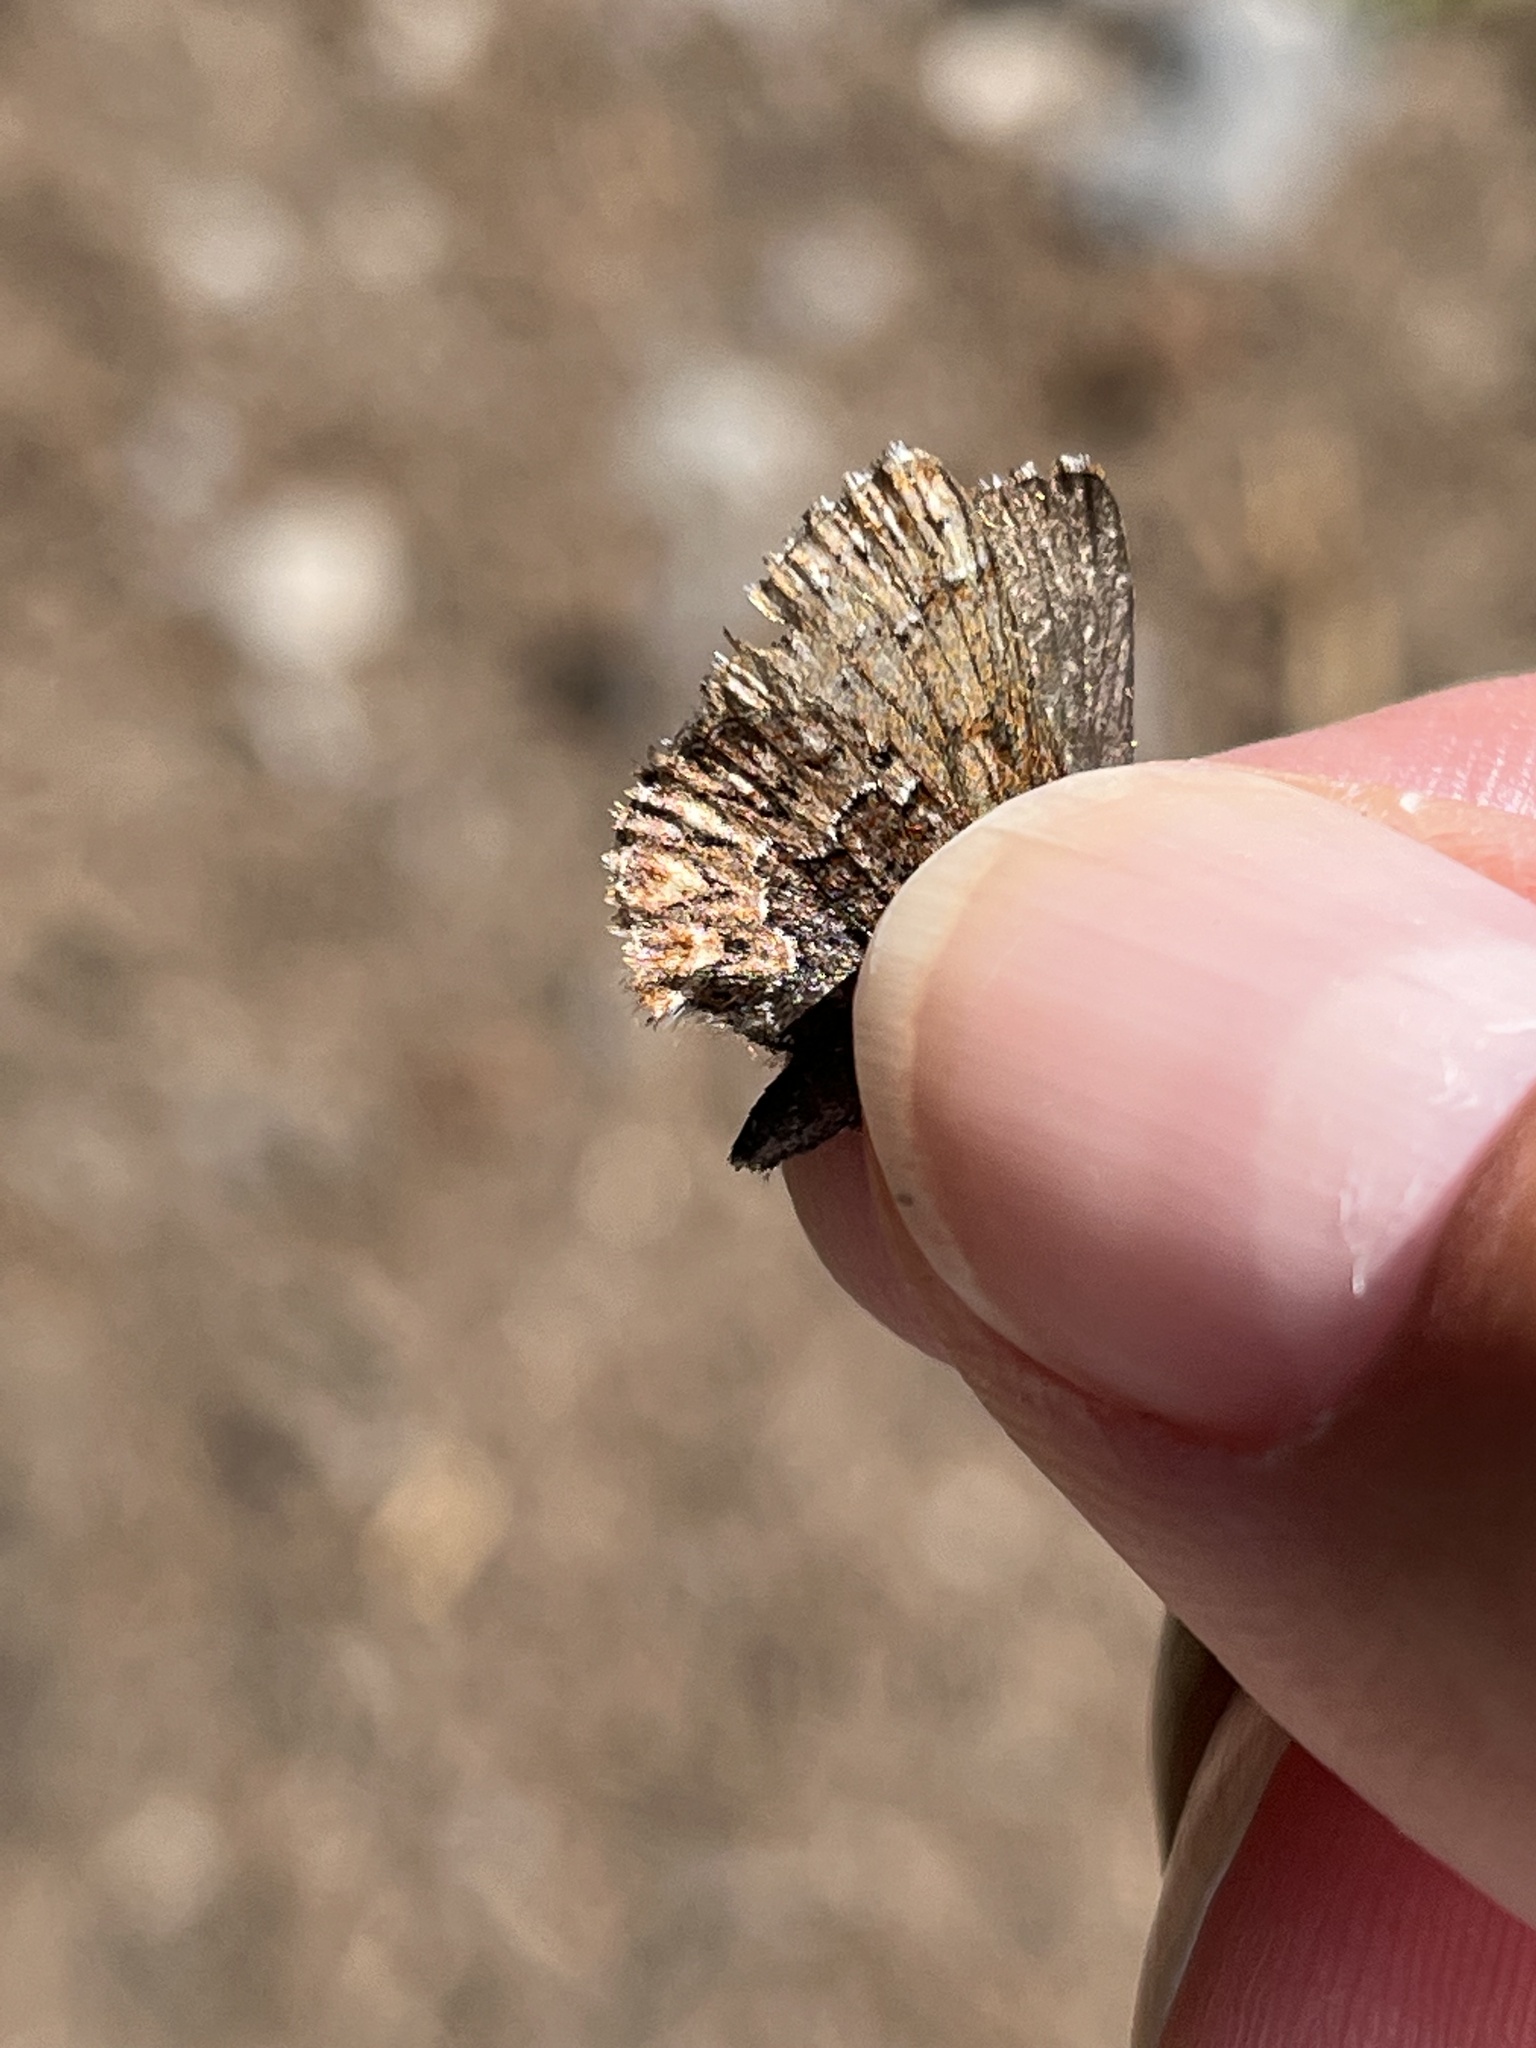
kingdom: Animalia
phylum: Arthropoda
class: Insecta
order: Lepidoptera
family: Lycaenidae
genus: Incisalia
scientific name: Incisalia eryphon
